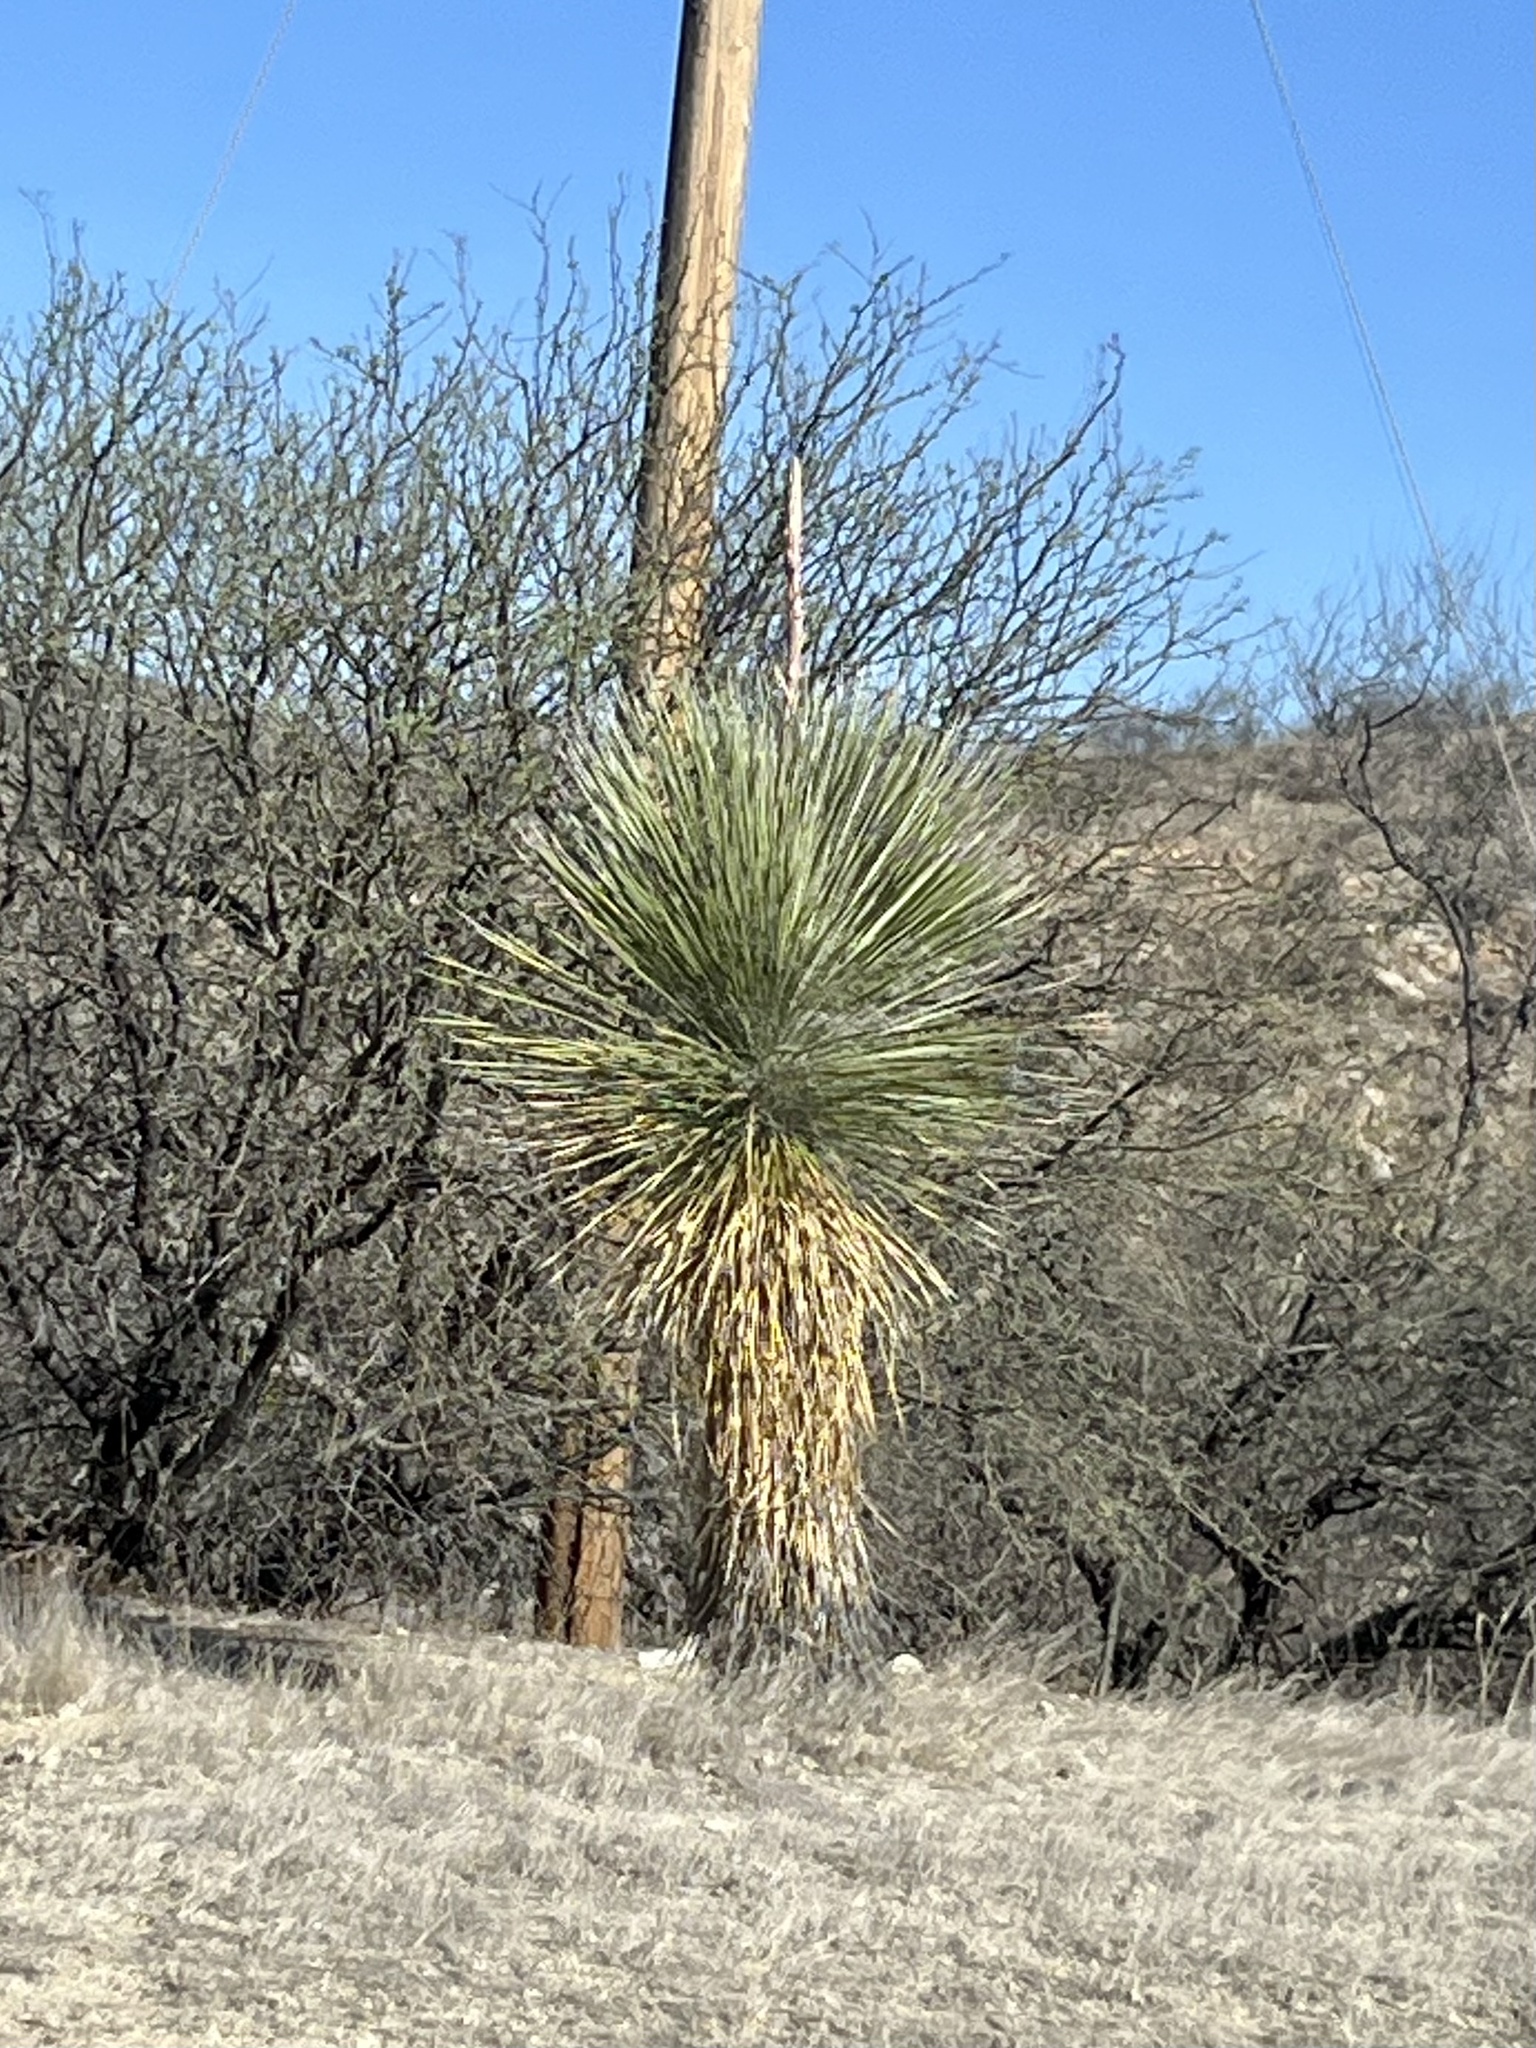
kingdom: Plantae
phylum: Tracheophyta
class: Liliopsida
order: Asparagales
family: Asparagaceae
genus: Yucca
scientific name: Yucca elata
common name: Palmella
